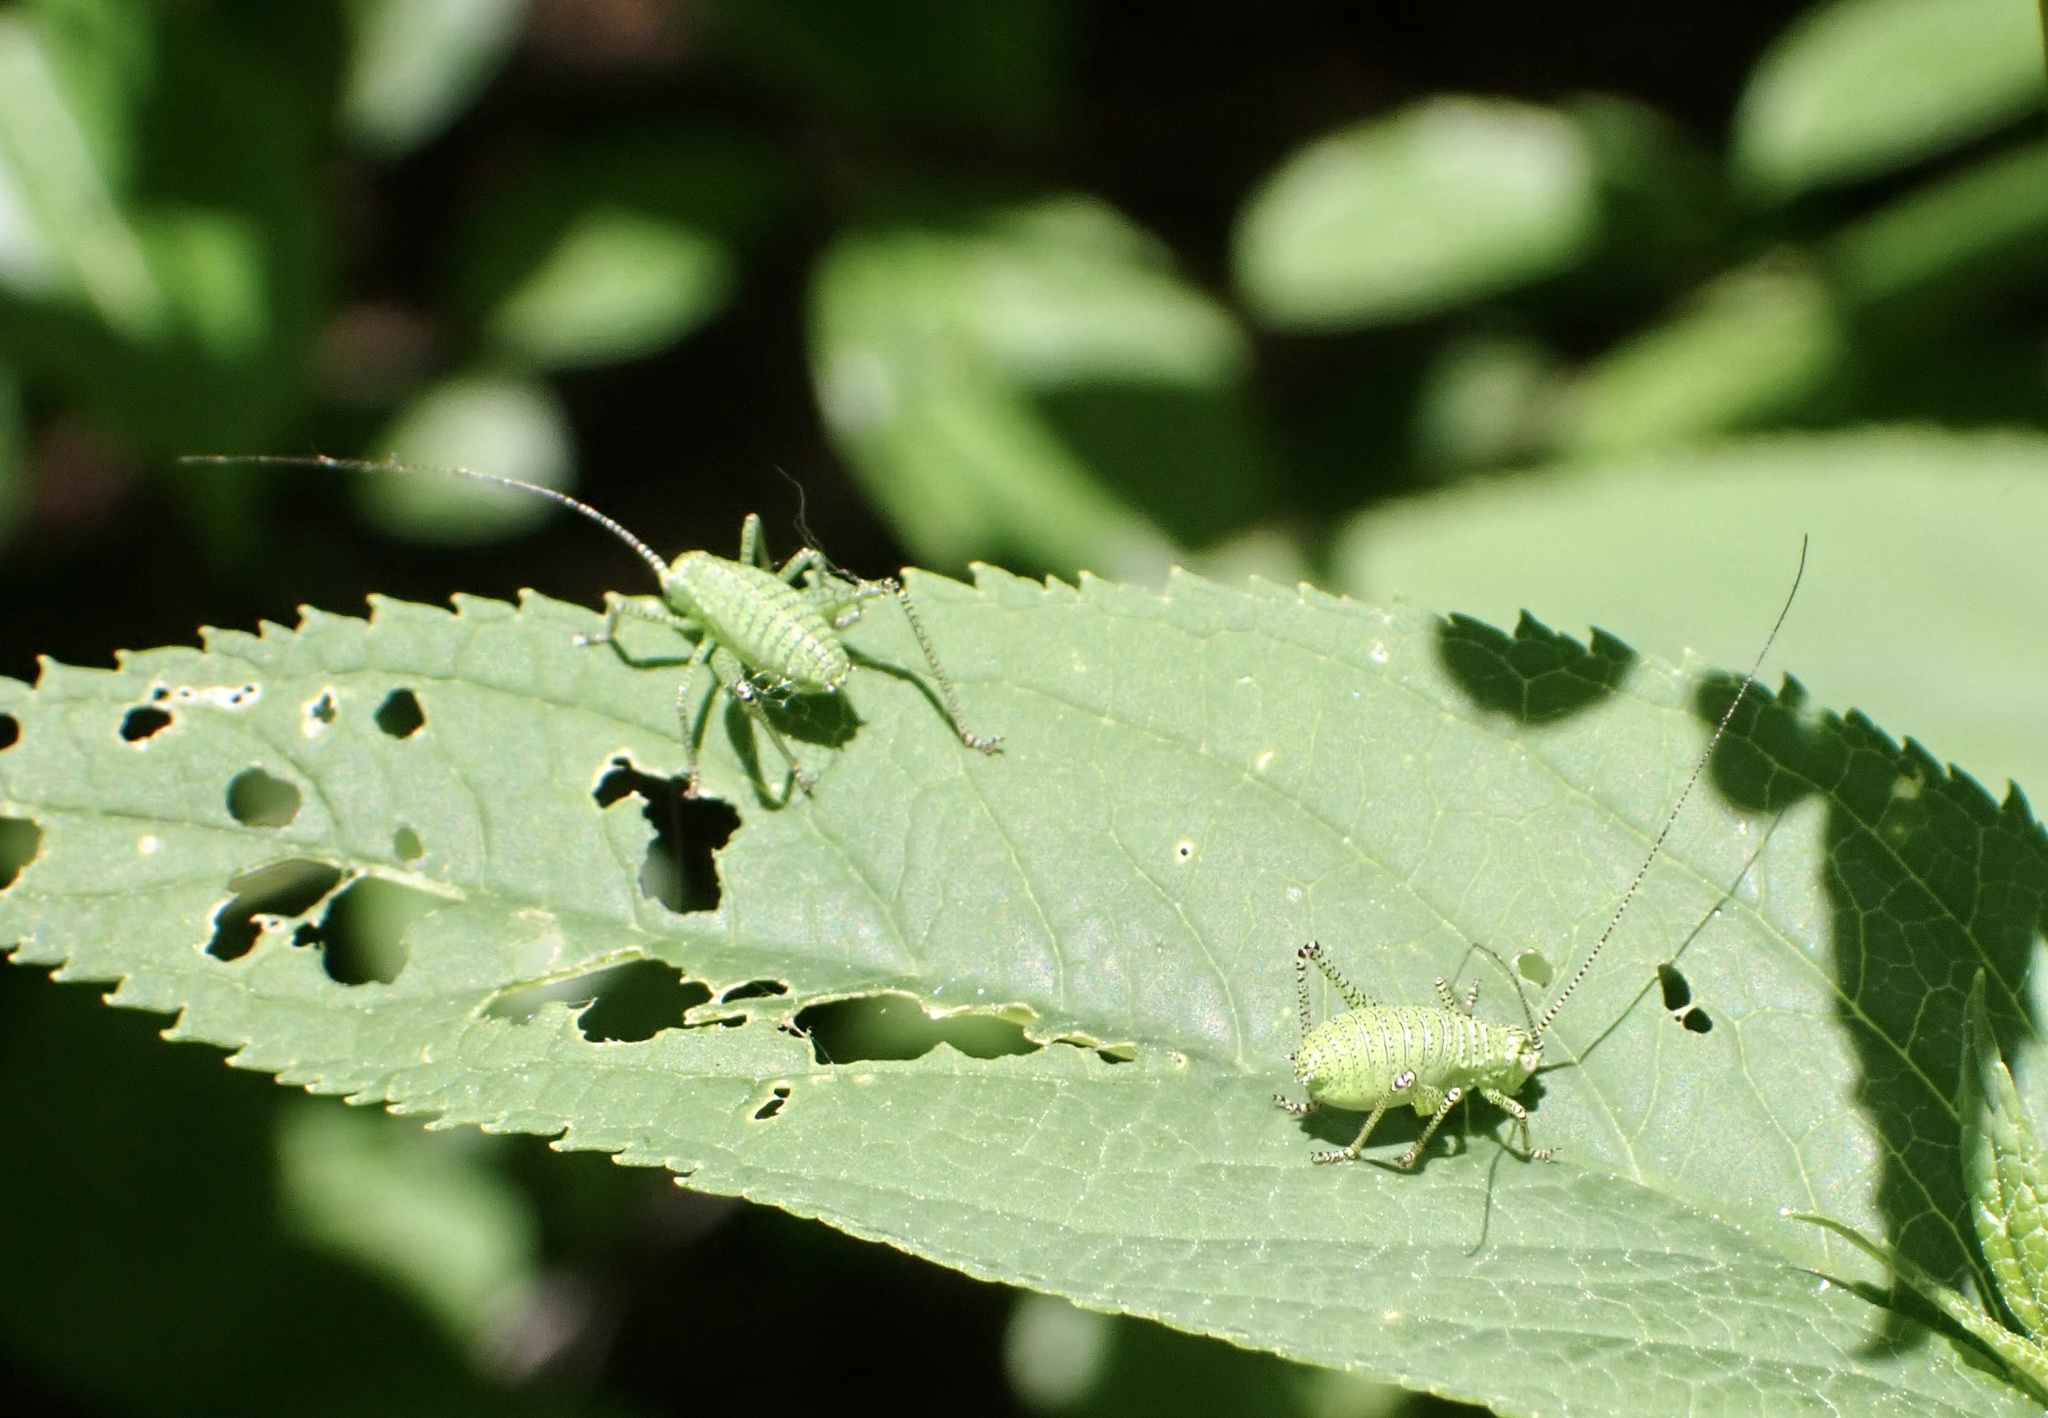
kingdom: Animalia
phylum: Arthropoda
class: Insecta
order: Orthoptera
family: Tettigoniidae
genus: Leptophyes
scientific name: Leptophyes punctatissima
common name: Speckled bush-cricket
